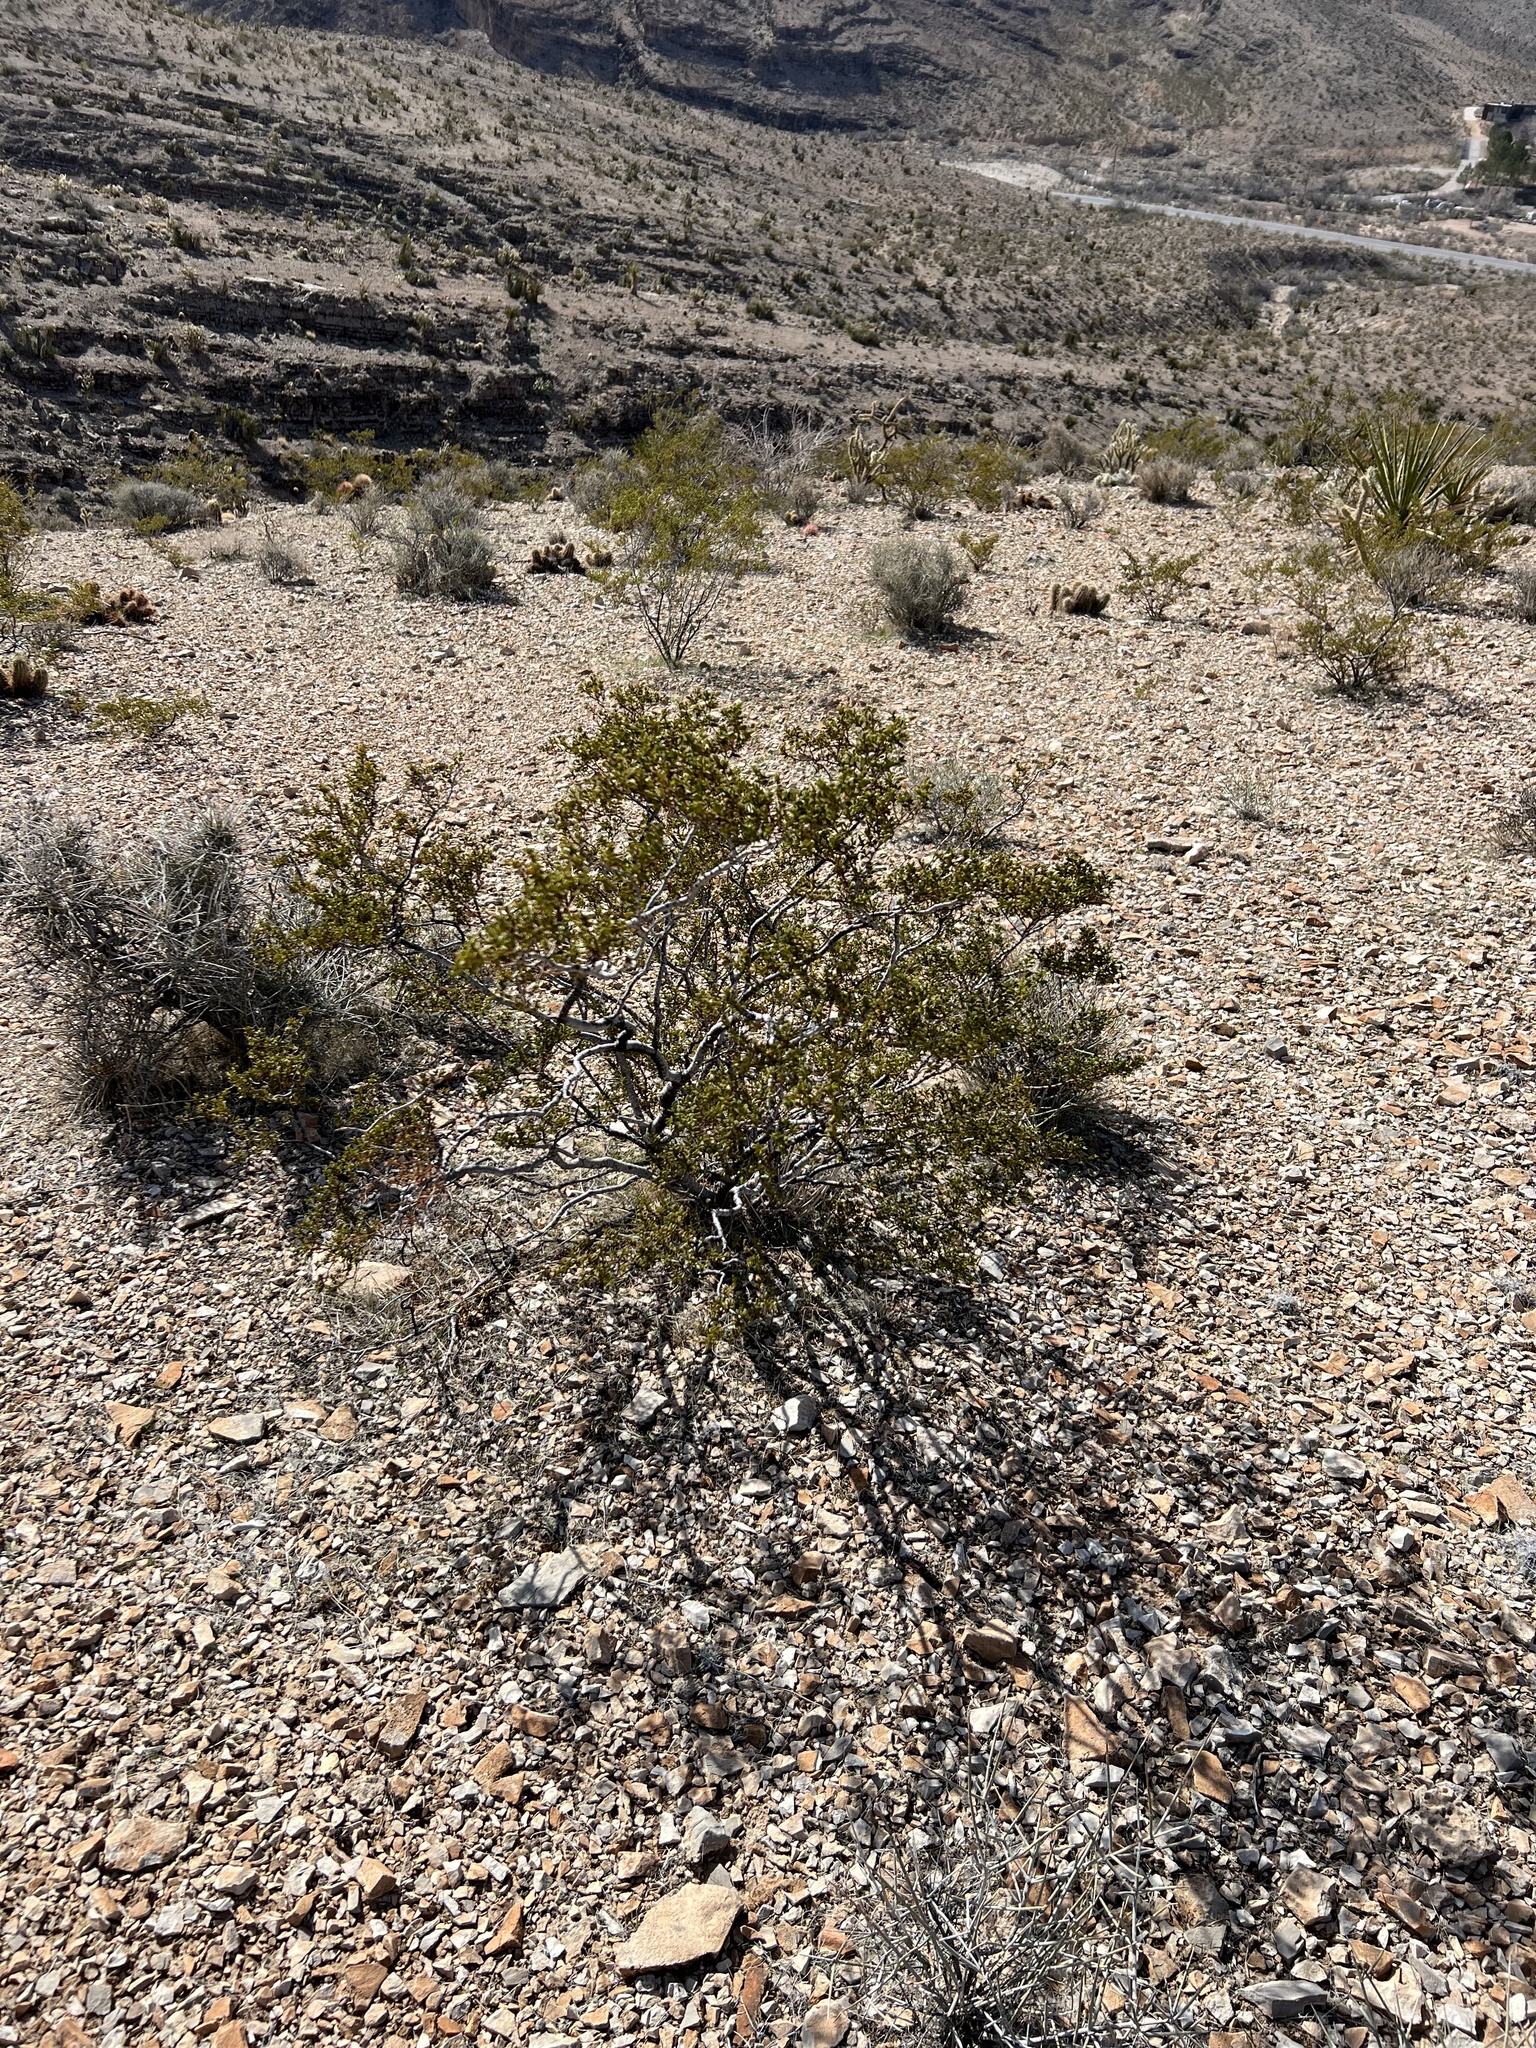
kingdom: Plantae
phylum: Tracheophyta
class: Magnoliopsida
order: Zygophyllales
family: Zygophyllaceae
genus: Larrea
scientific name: Larrea tridentata
